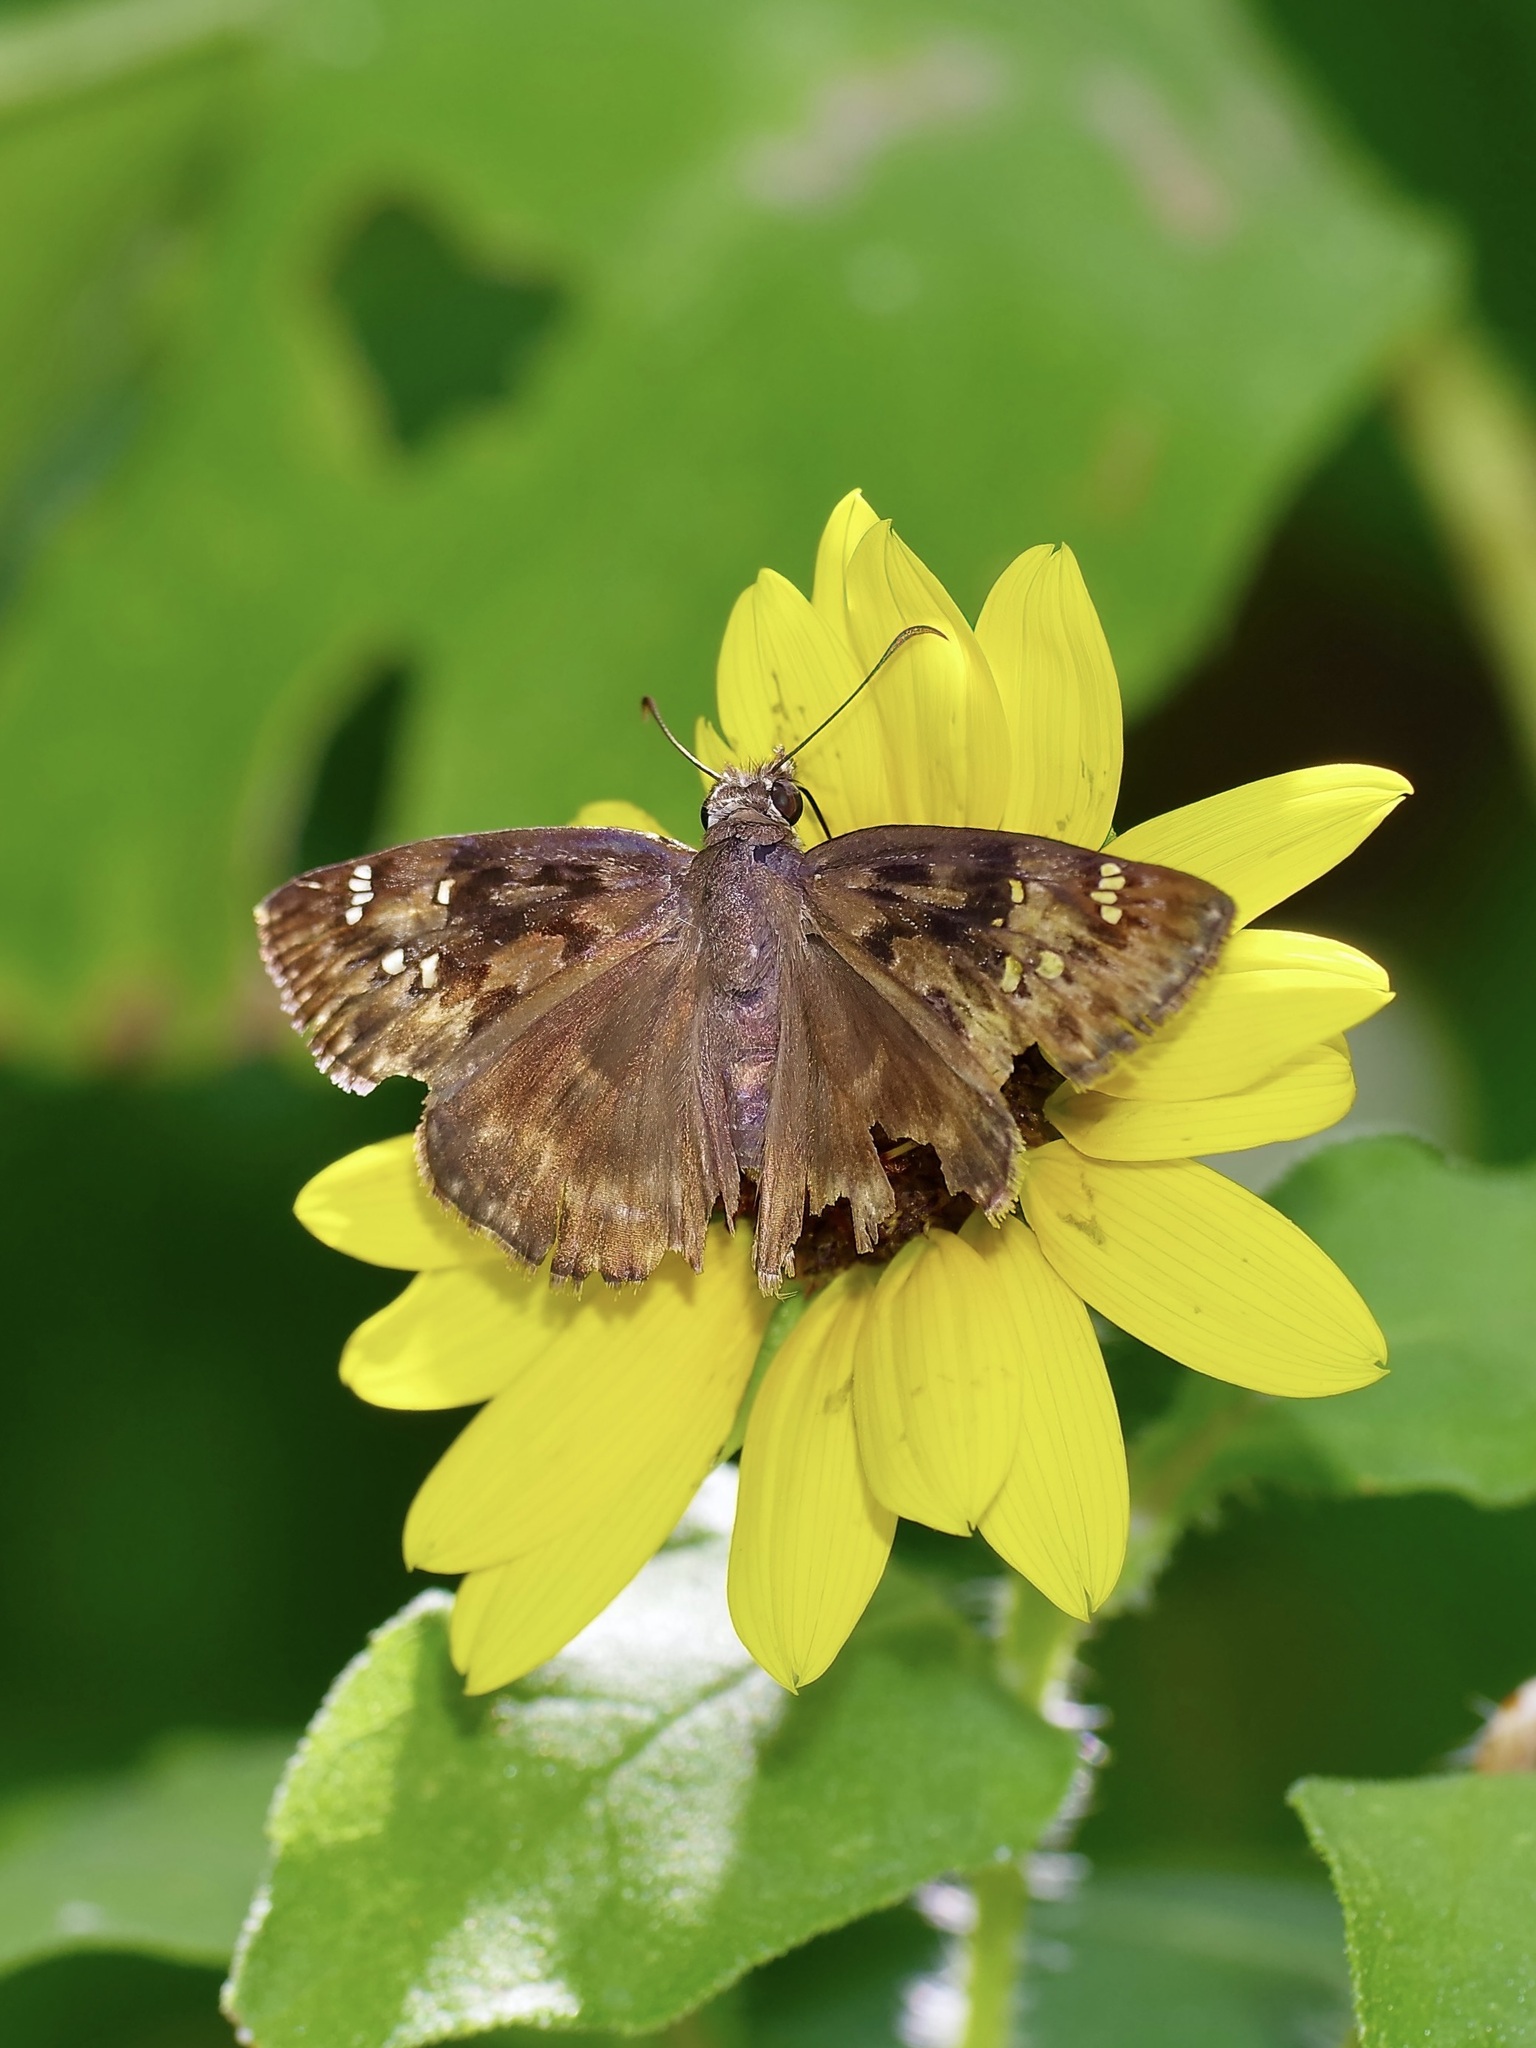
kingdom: Animalia
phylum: Arthropoda
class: Insecta
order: Lepidoptera
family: Hesperiidae
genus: Erynnis
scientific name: Erynnis horatius
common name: Horace's duskywing
